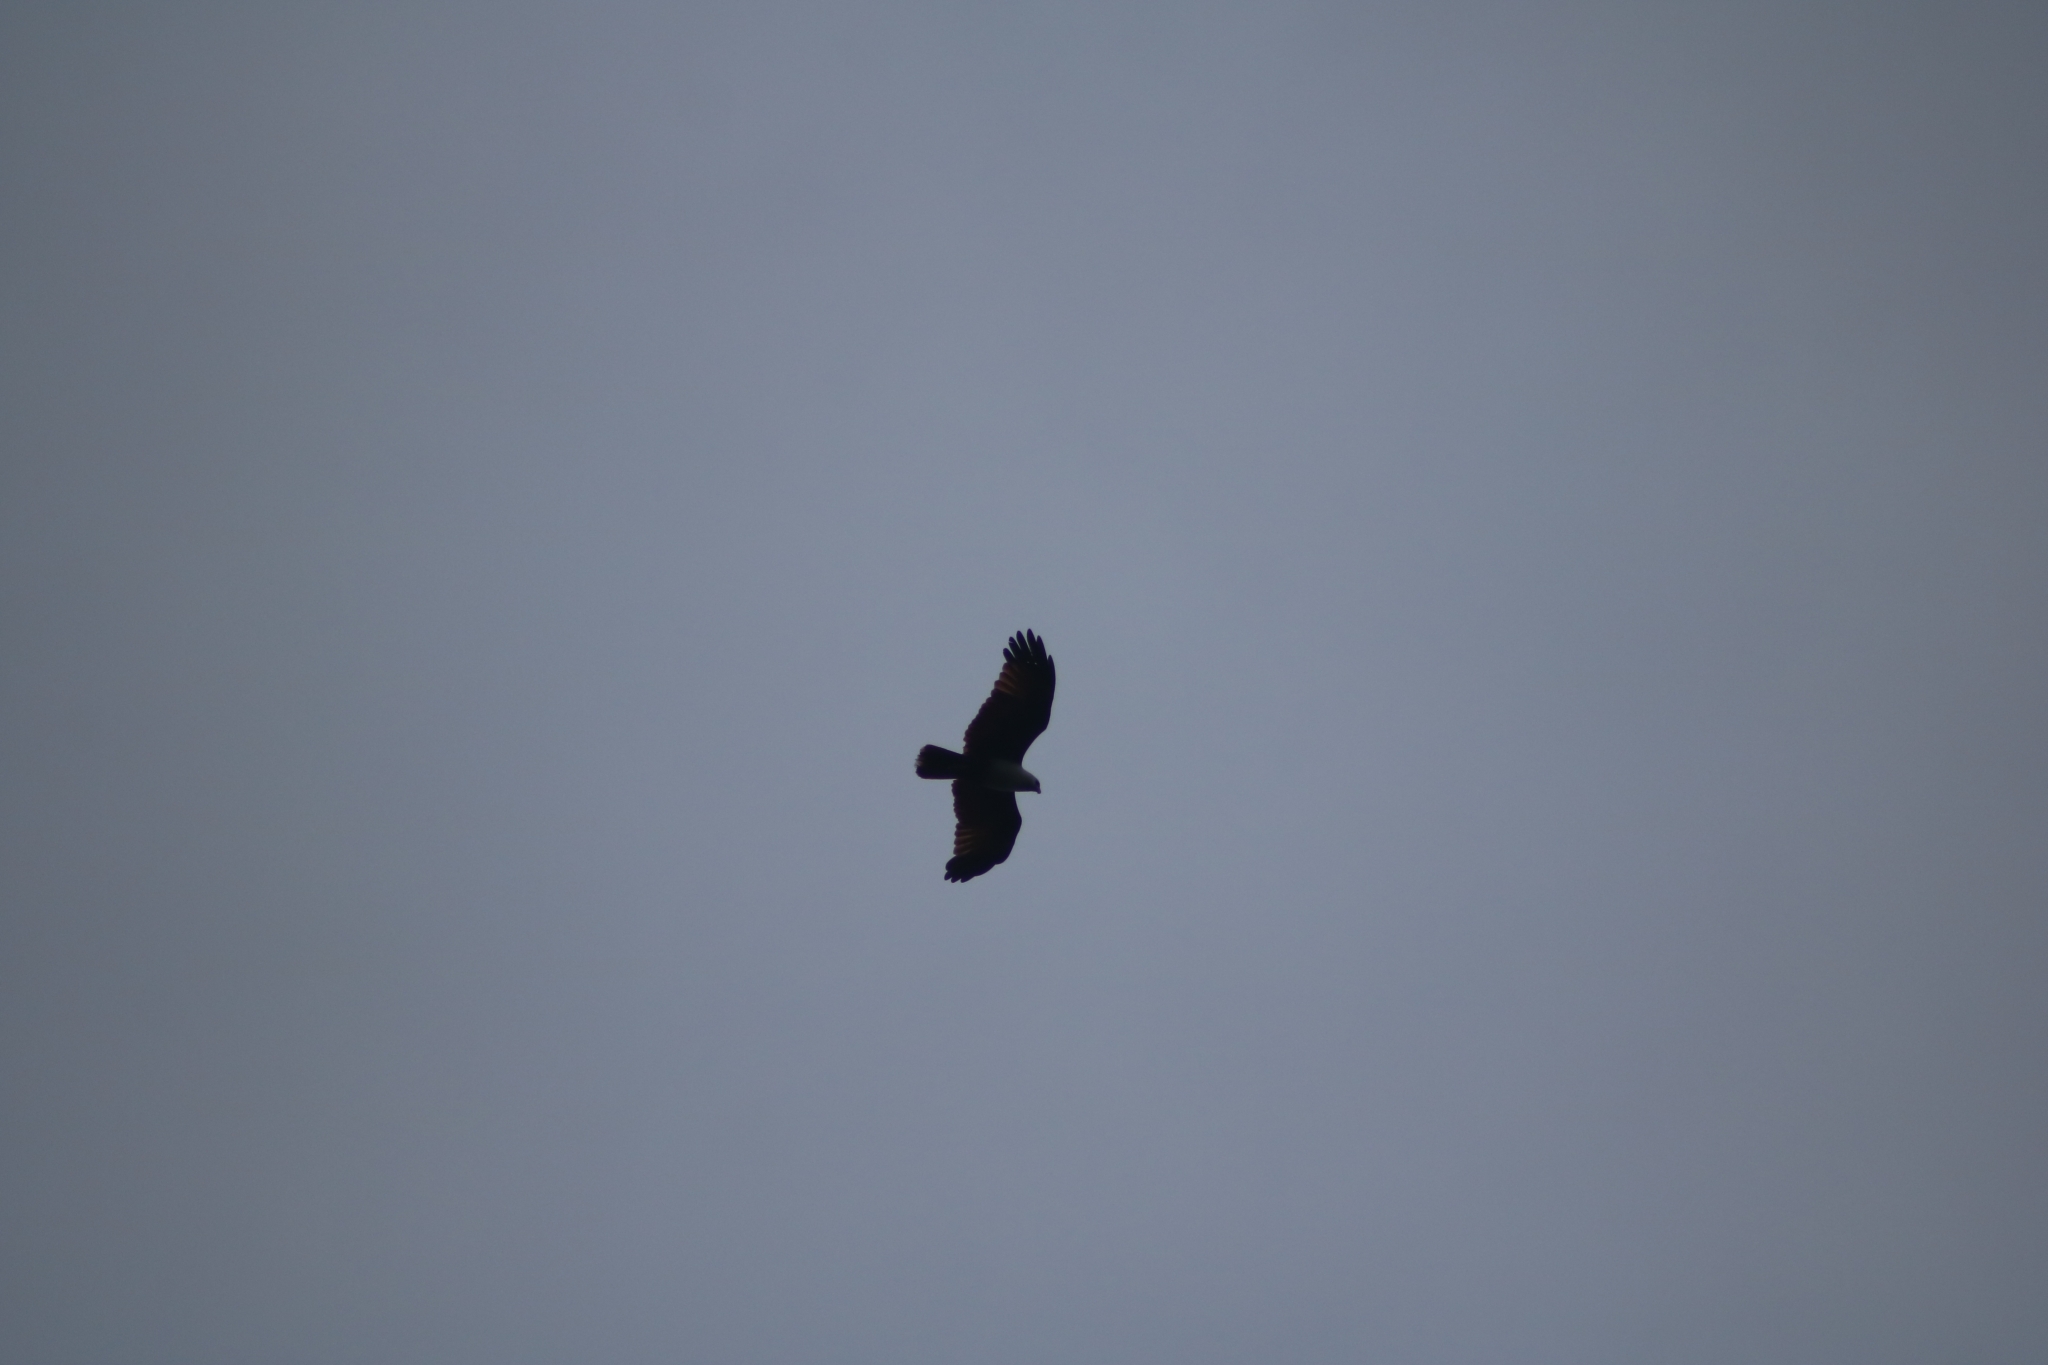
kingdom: Animalia
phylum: Chordata
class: Aves
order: Accipitriformes
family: Accipitridae
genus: Haliastur
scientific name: Haliastur indus
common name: Brahminy kite
